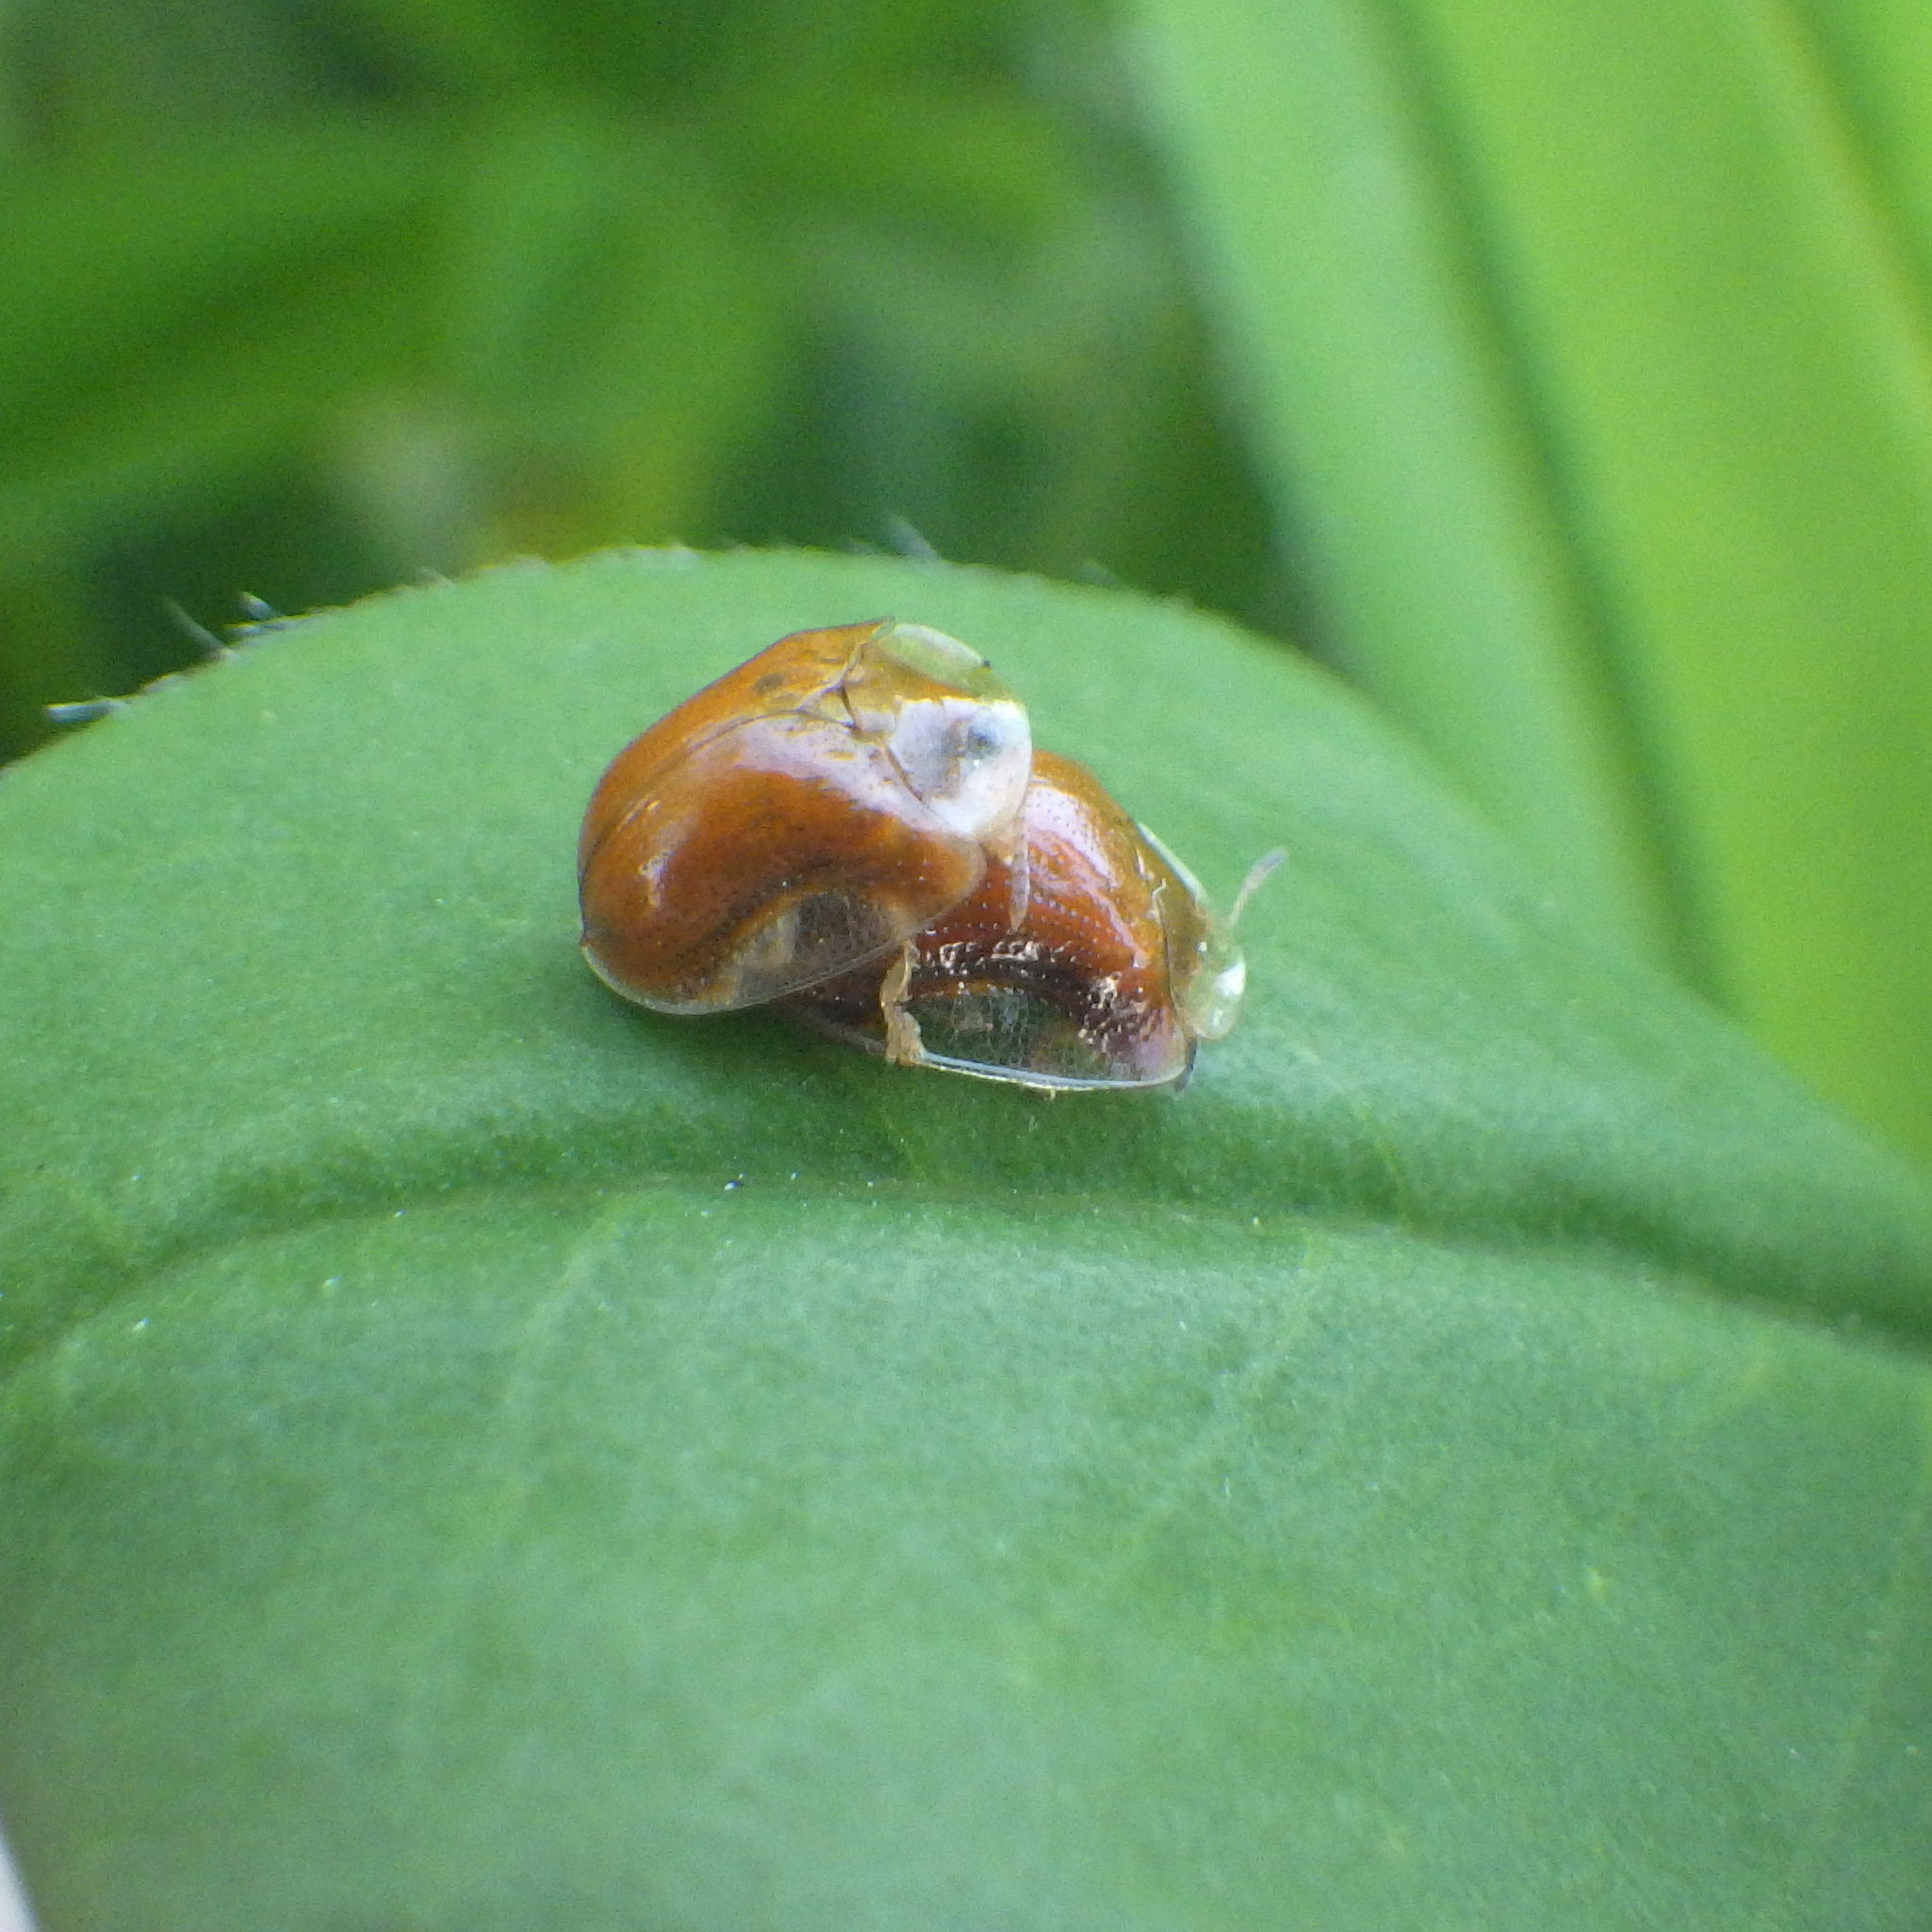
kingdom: Animalia
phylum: Arthropoda
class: Insecta
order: Coleoptera
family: Chrysomelidae
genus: Charidotella
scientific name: Charidotella purpurata
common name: Small orange tortoise beetle
